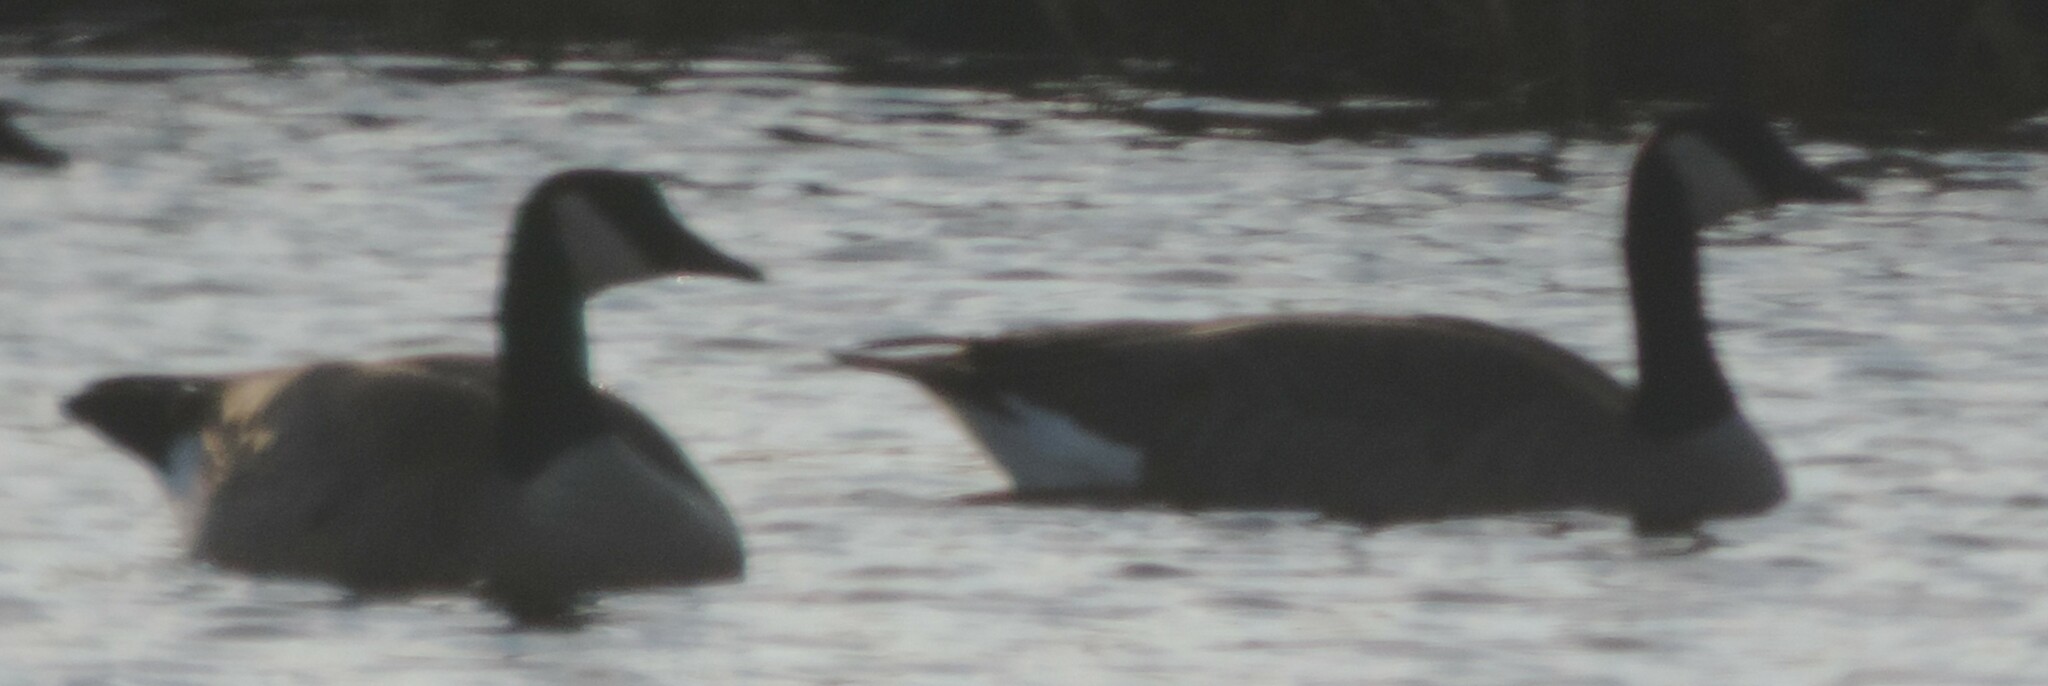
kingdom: Animalia
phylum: Chordata
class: Aves
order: Anseriformes
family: Anatidae
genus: Branta
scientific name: Branta canadensis
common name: Canada goose
